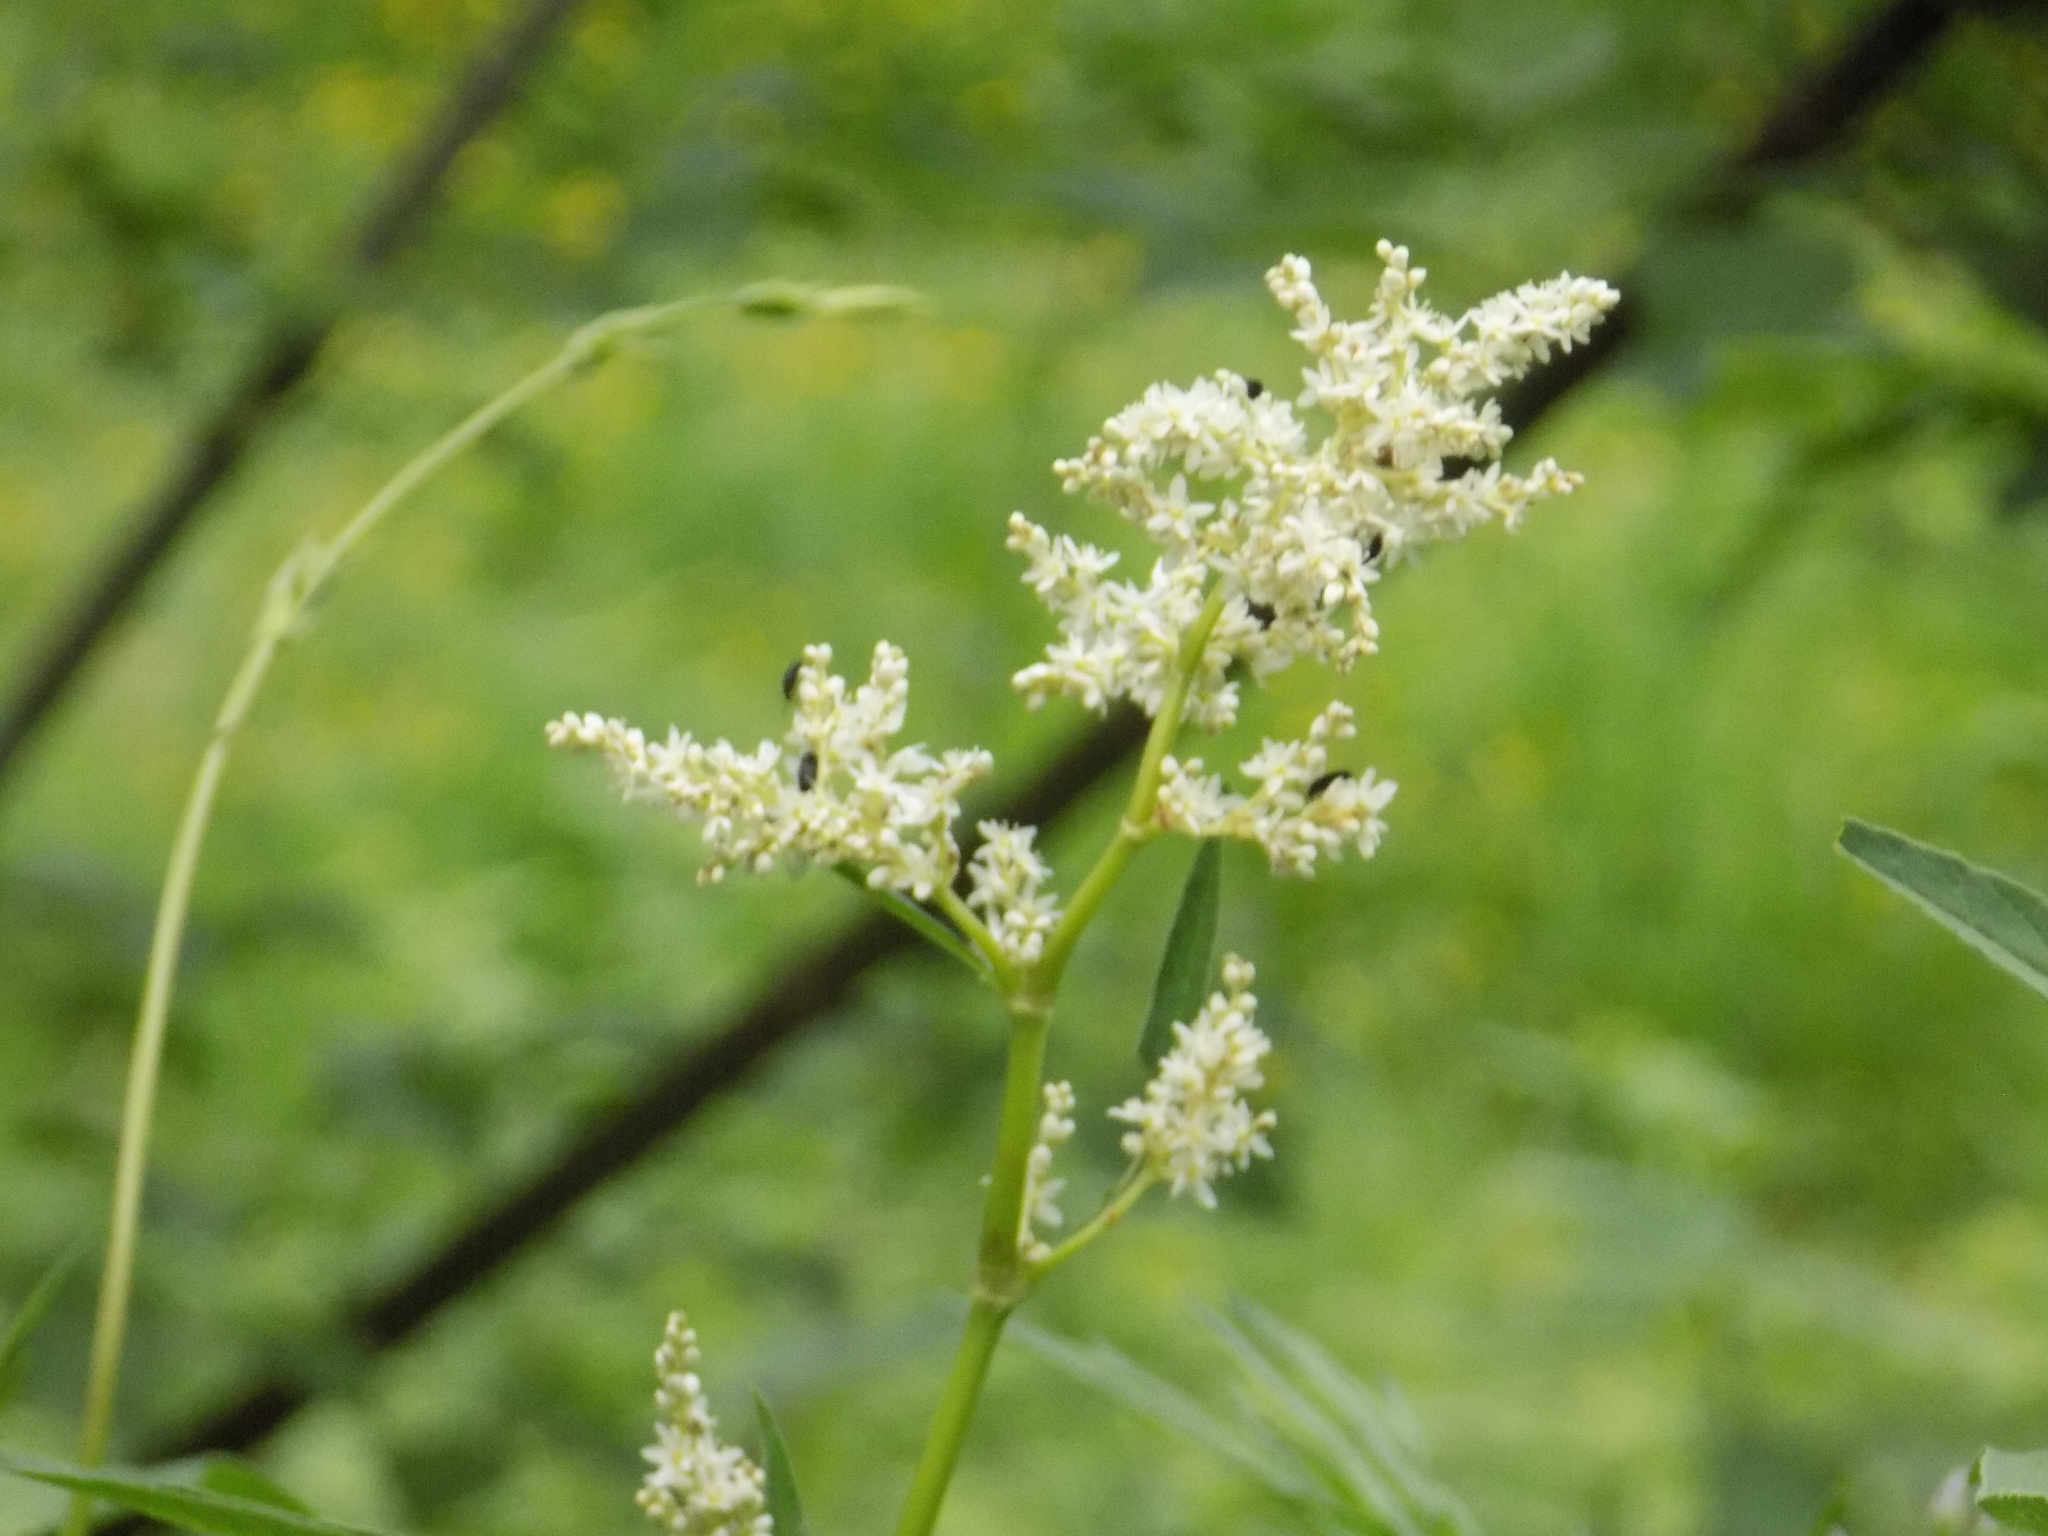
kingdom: Plantae
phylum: Tracheophyta
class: Magnoliopsida
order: Caryophyllales
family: Polygonaceae
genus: Koenigia
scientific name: Koenigia alpina
